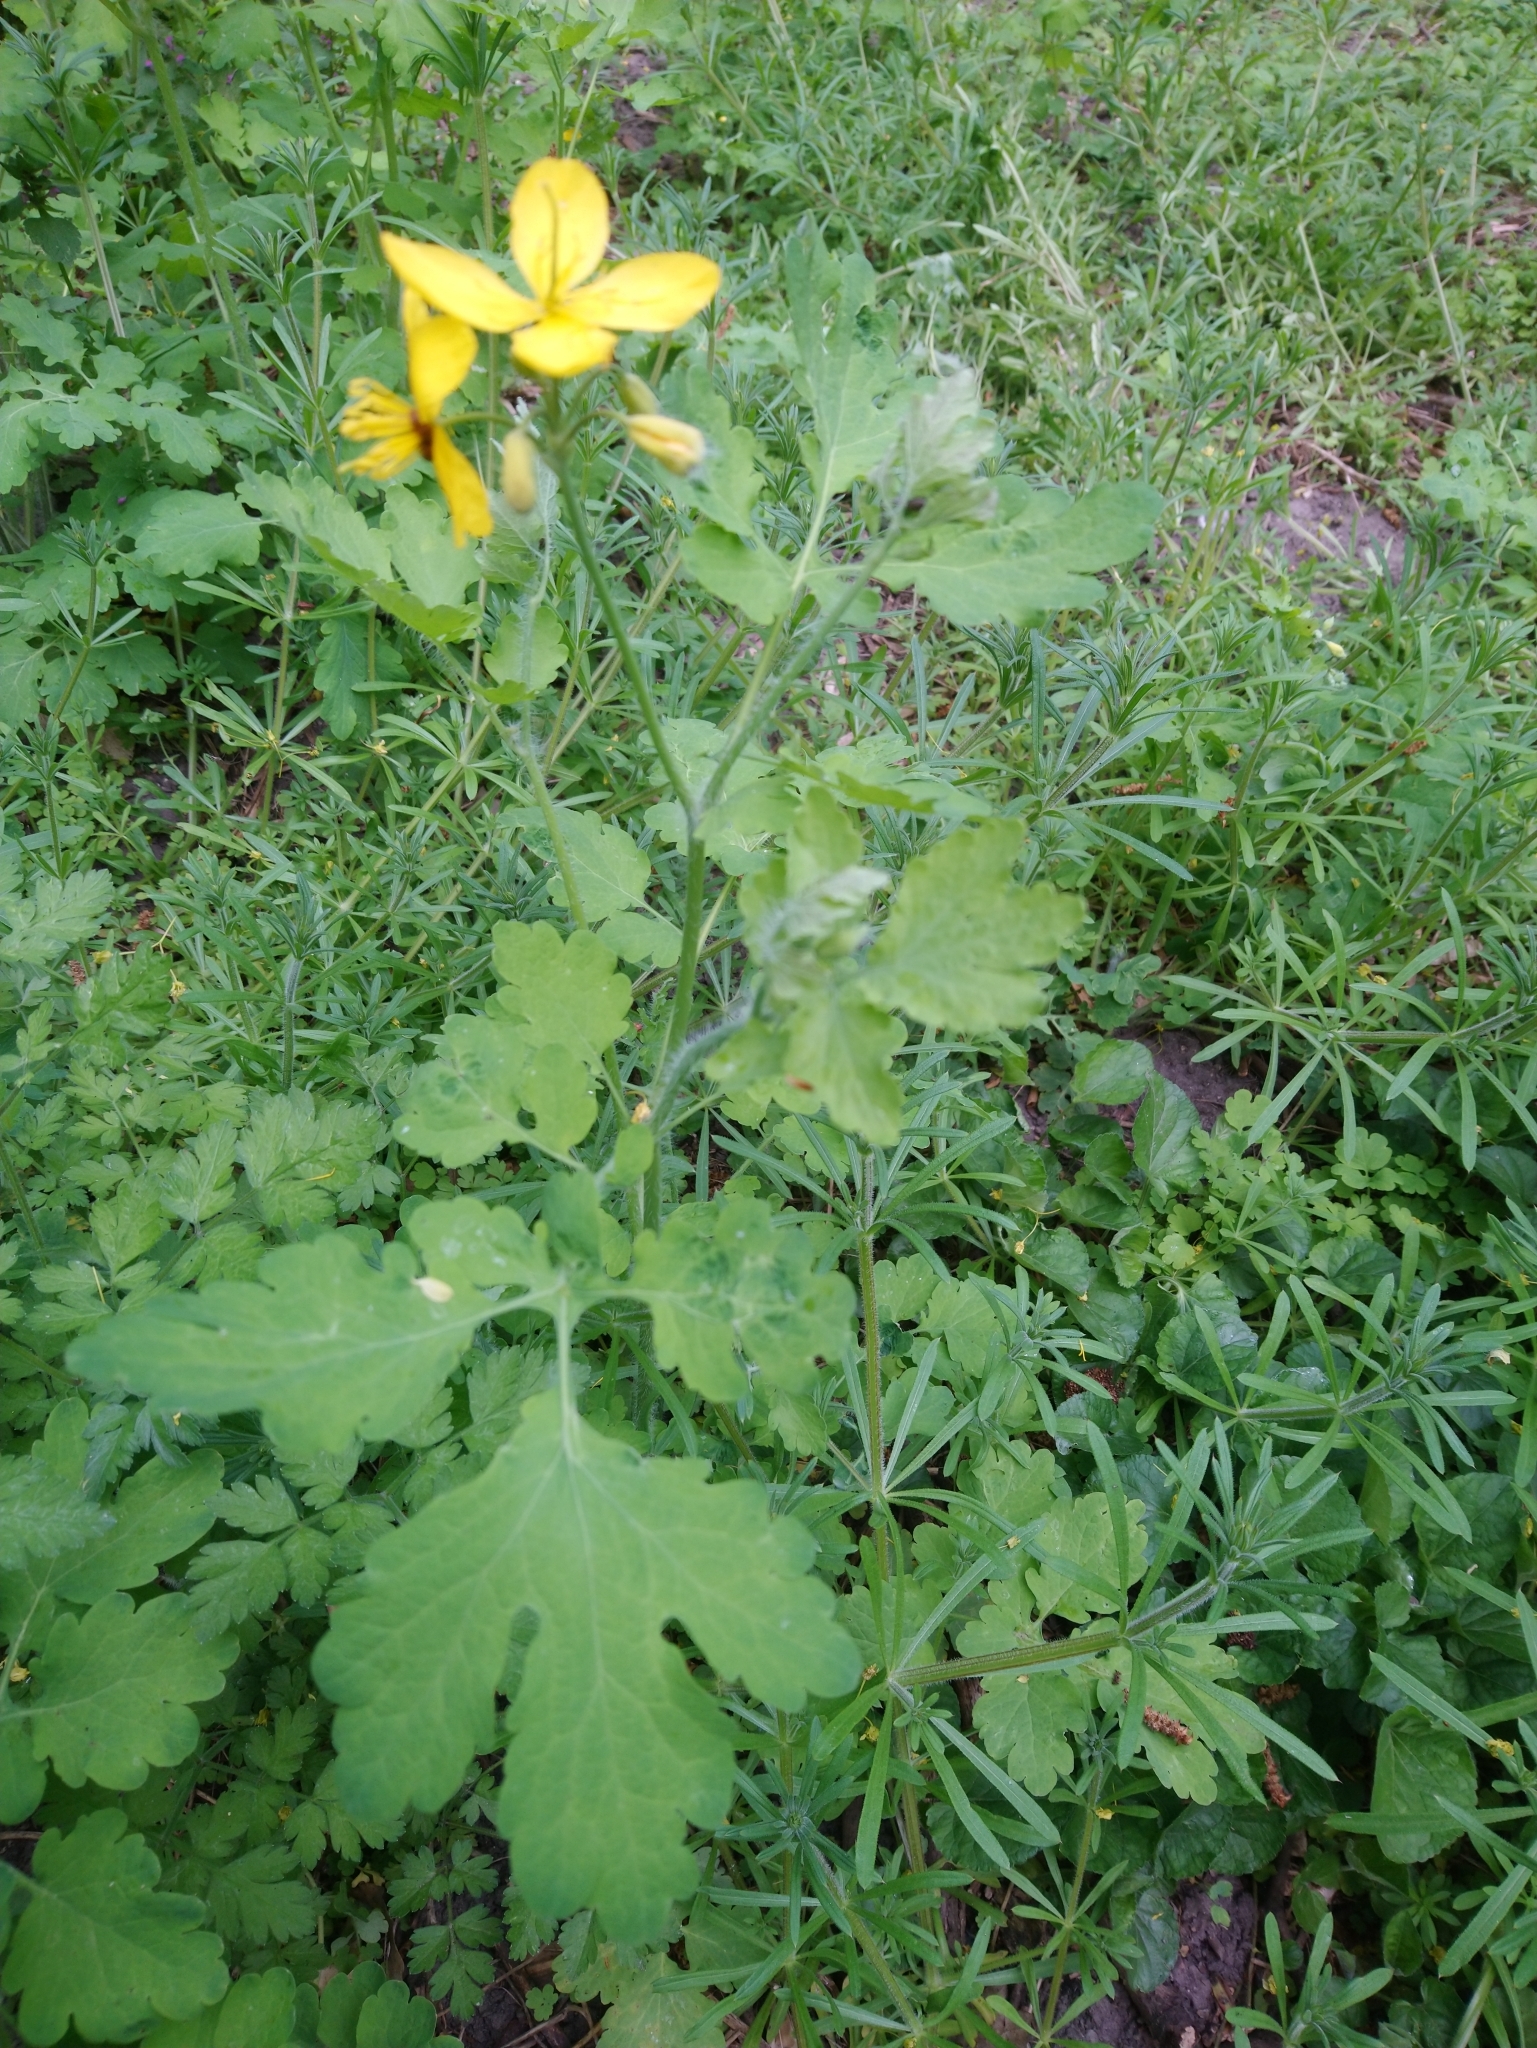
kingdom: Plantae
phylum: Tracheophyta
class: Magnoliopsida
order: Ranunculales
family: Papaveraceae
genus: Chelidonium
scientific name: Chelidonium majus
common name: Greater celandine
